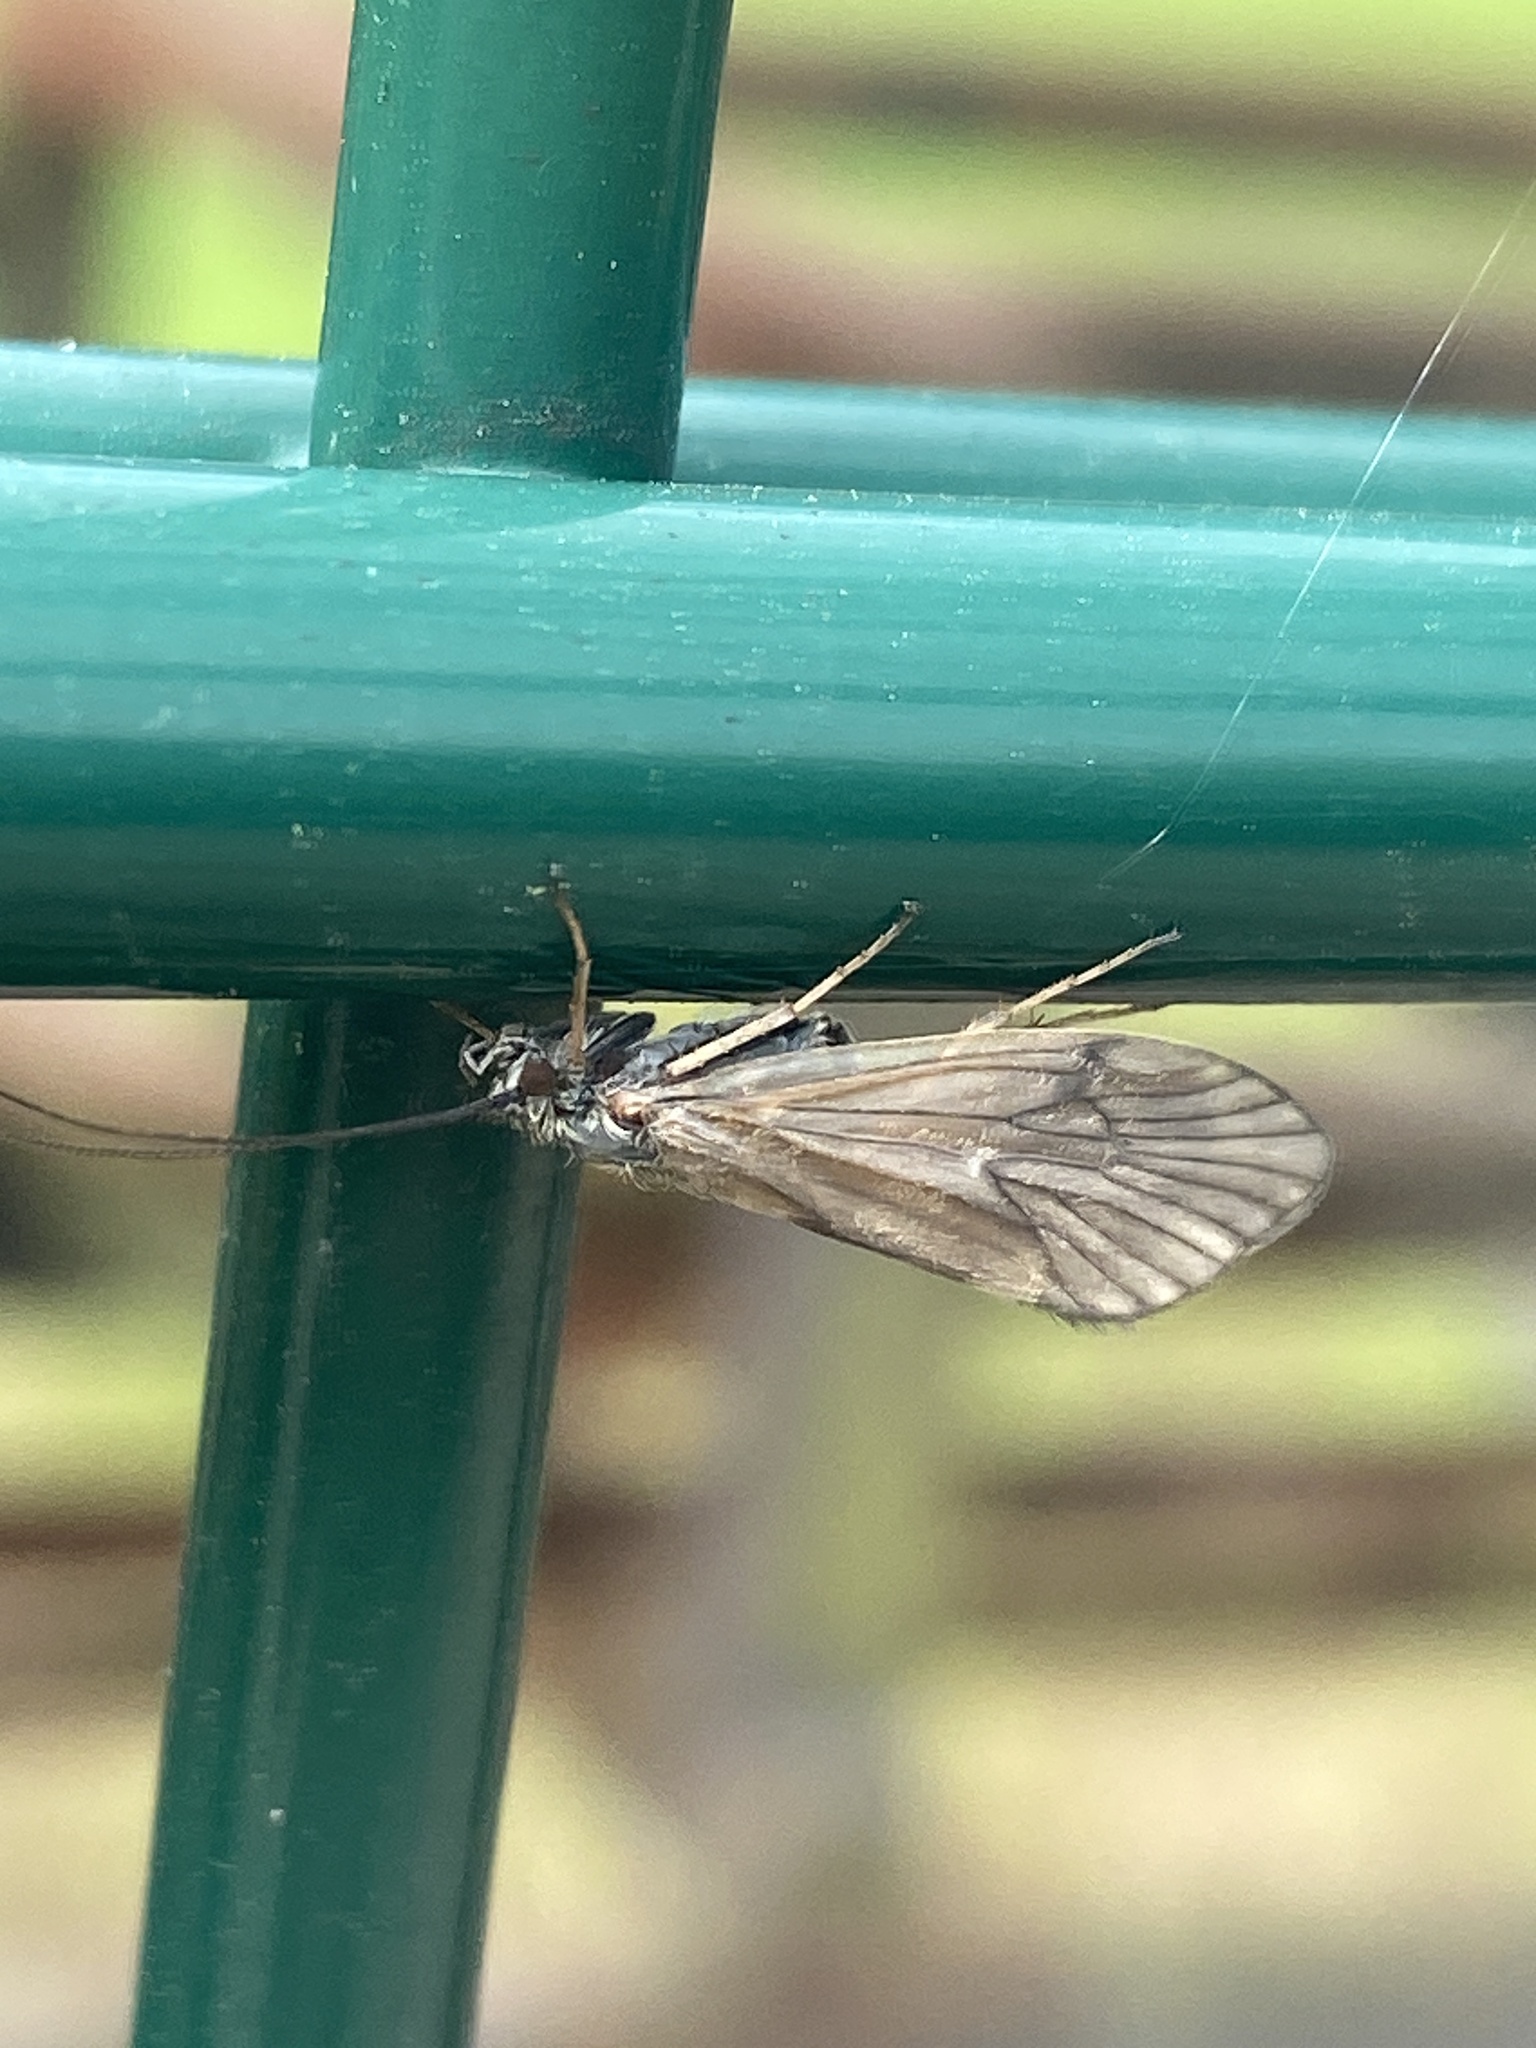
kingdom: Animalia
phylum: Arthropoda
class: Insecta
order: Trichoptera
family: Brachycentridae
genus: Brachycentrus
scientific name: Brachycentrus subnubilis
